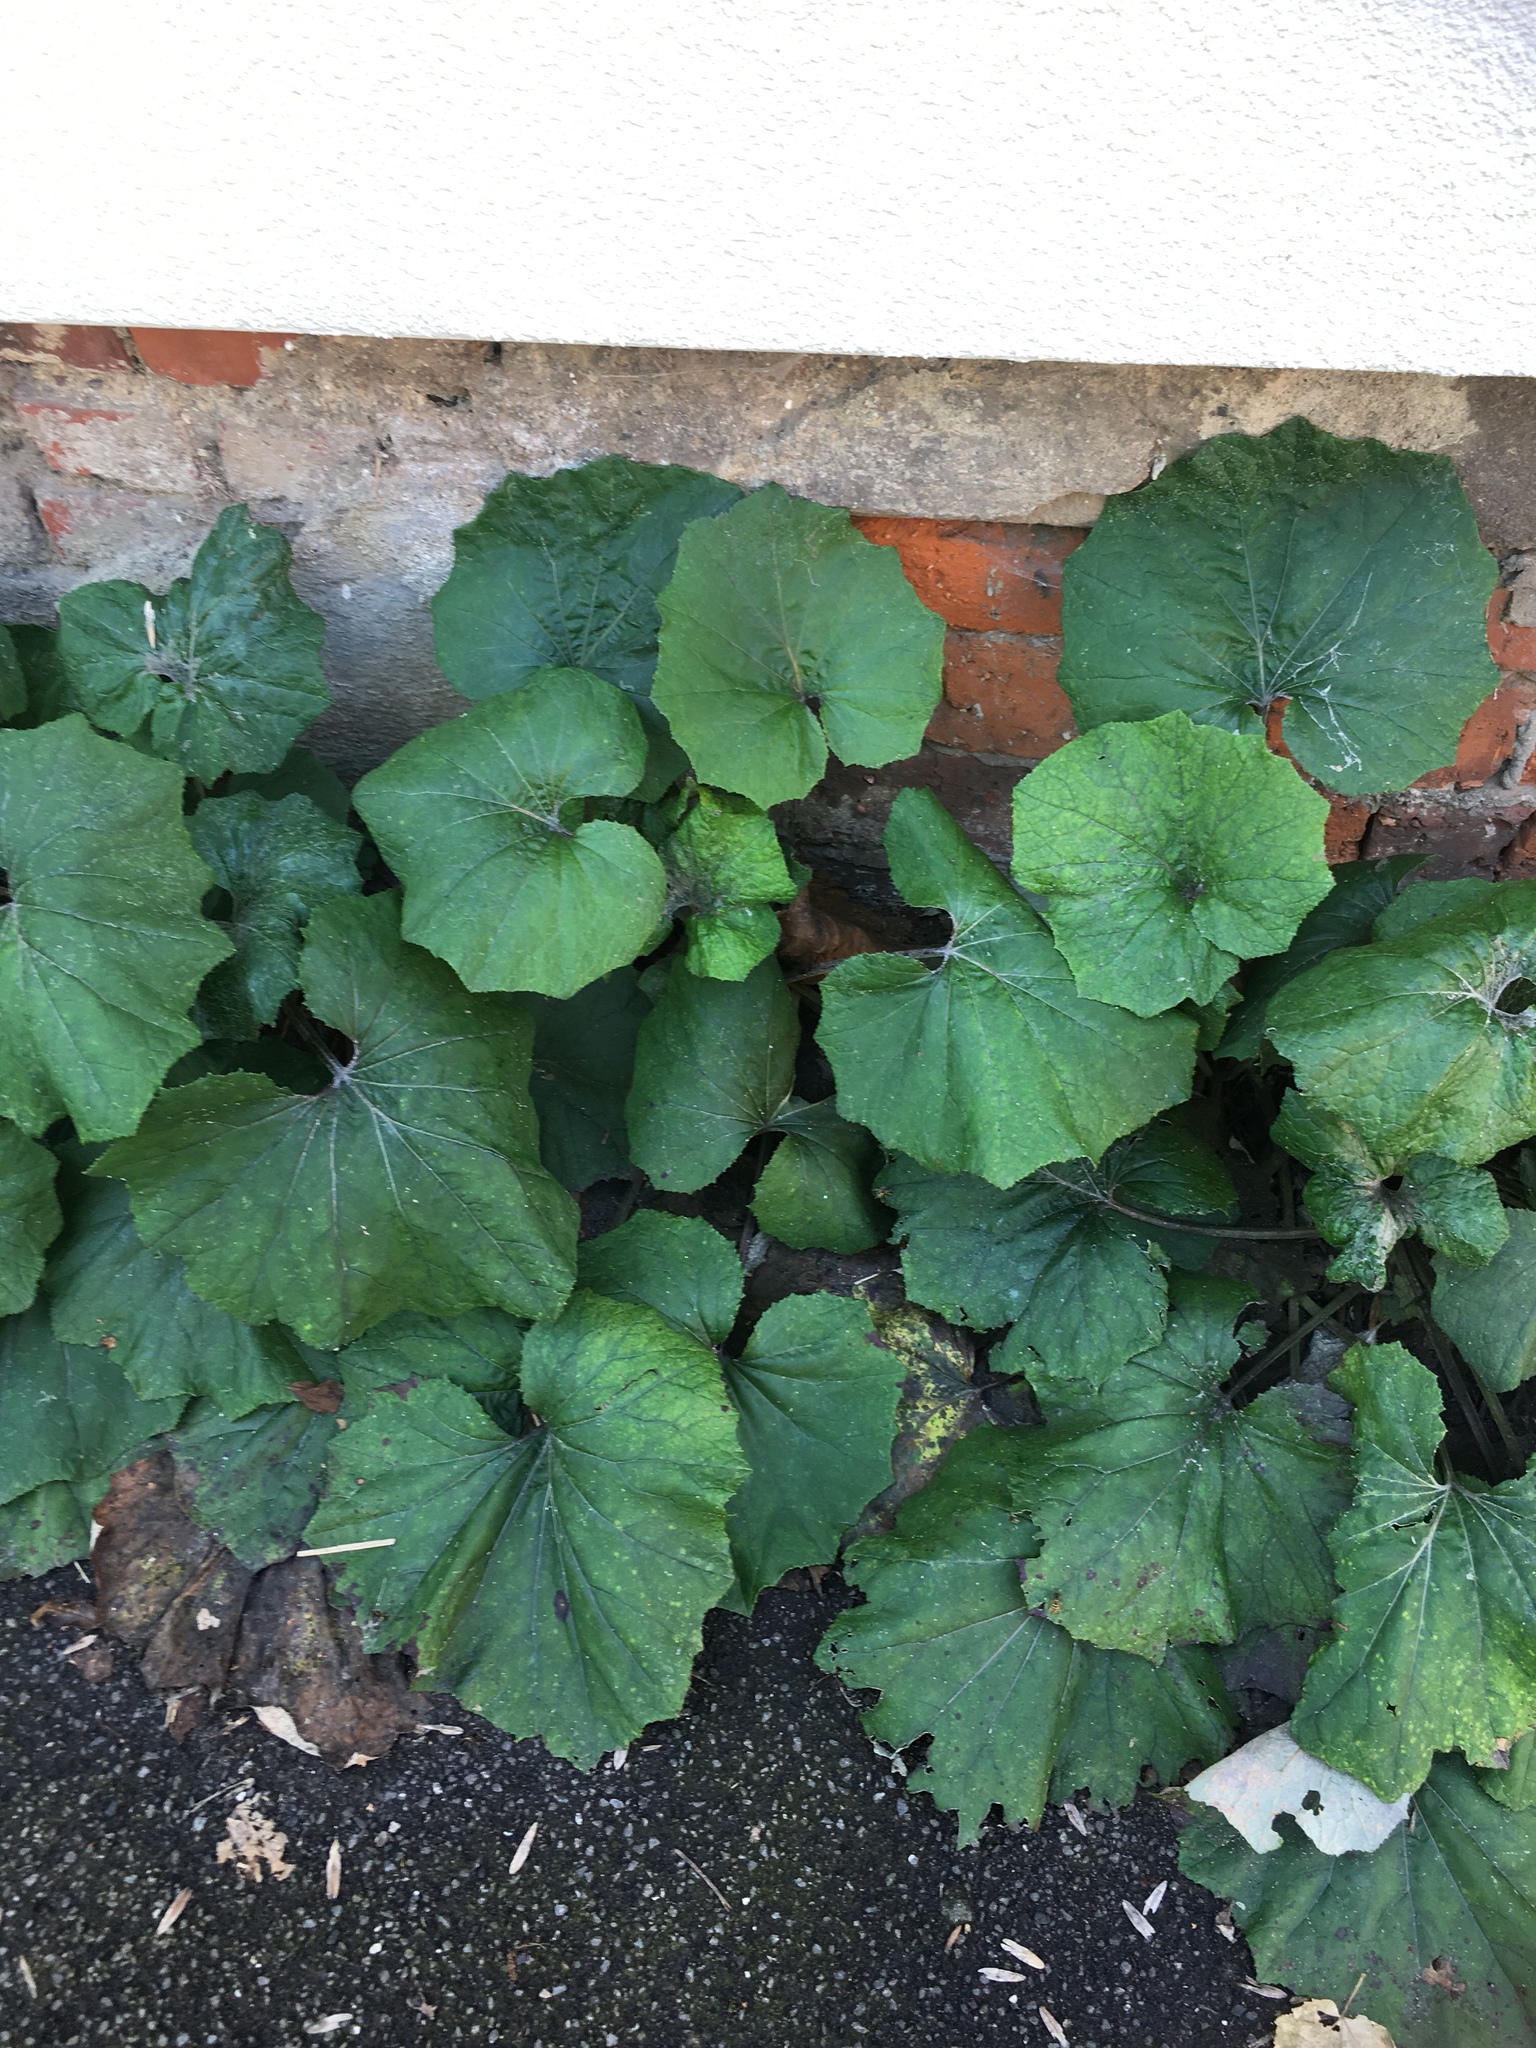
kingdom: Plantae
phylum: Tracheophyta
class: Magnoliopsida
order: Asterales
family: Asteraceae
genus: Tussilago
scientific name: Tussilago farfara
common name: Coltsfoot
